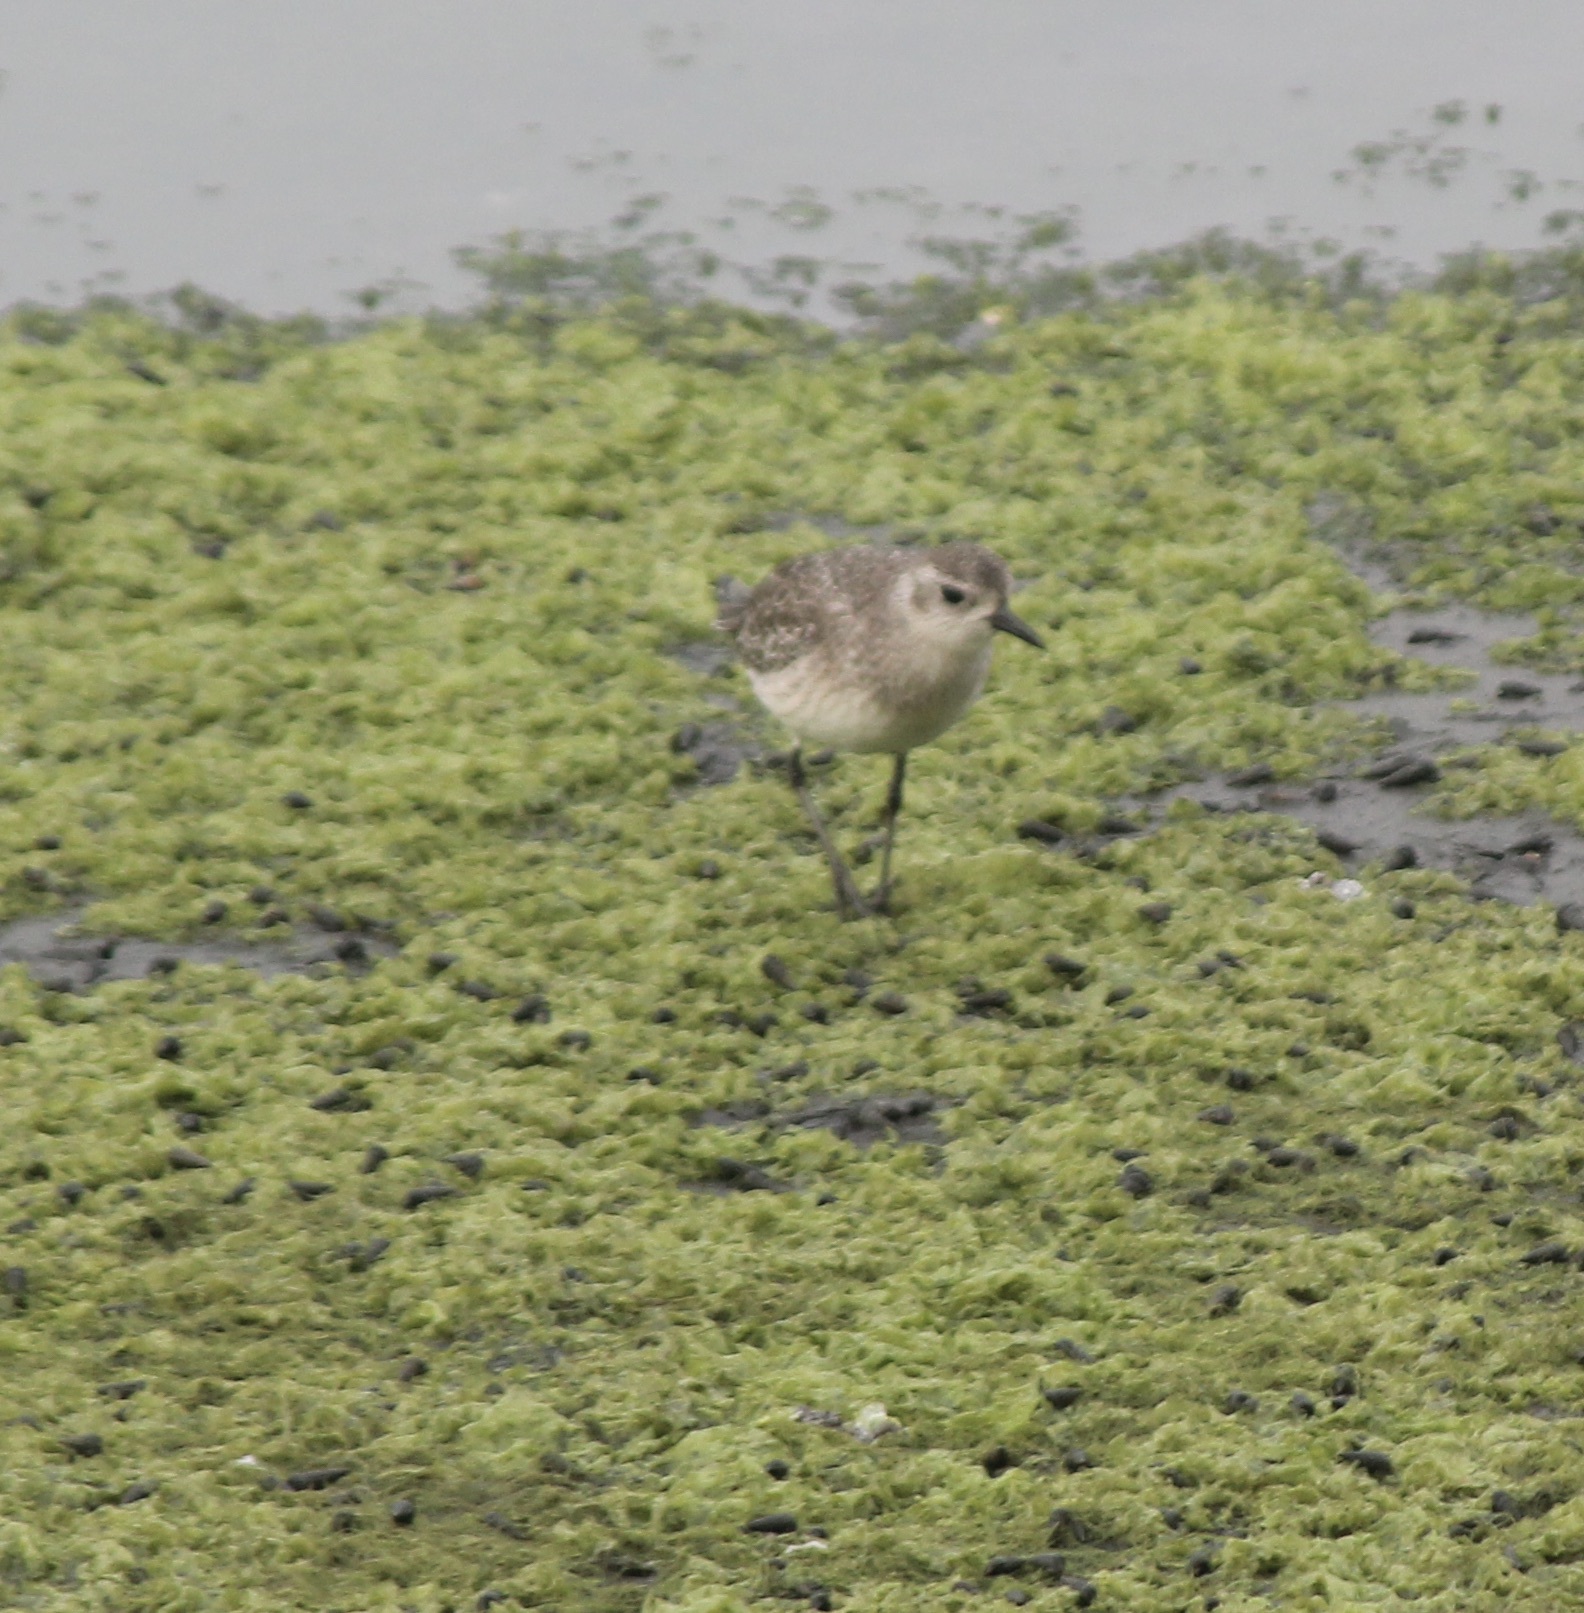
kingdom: Animalia
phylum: Chordata
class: Aves
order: Charadriiformes
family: Charadriidae
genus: Pluvialis
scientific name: Pluvialis squatarola
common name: Grey plover
